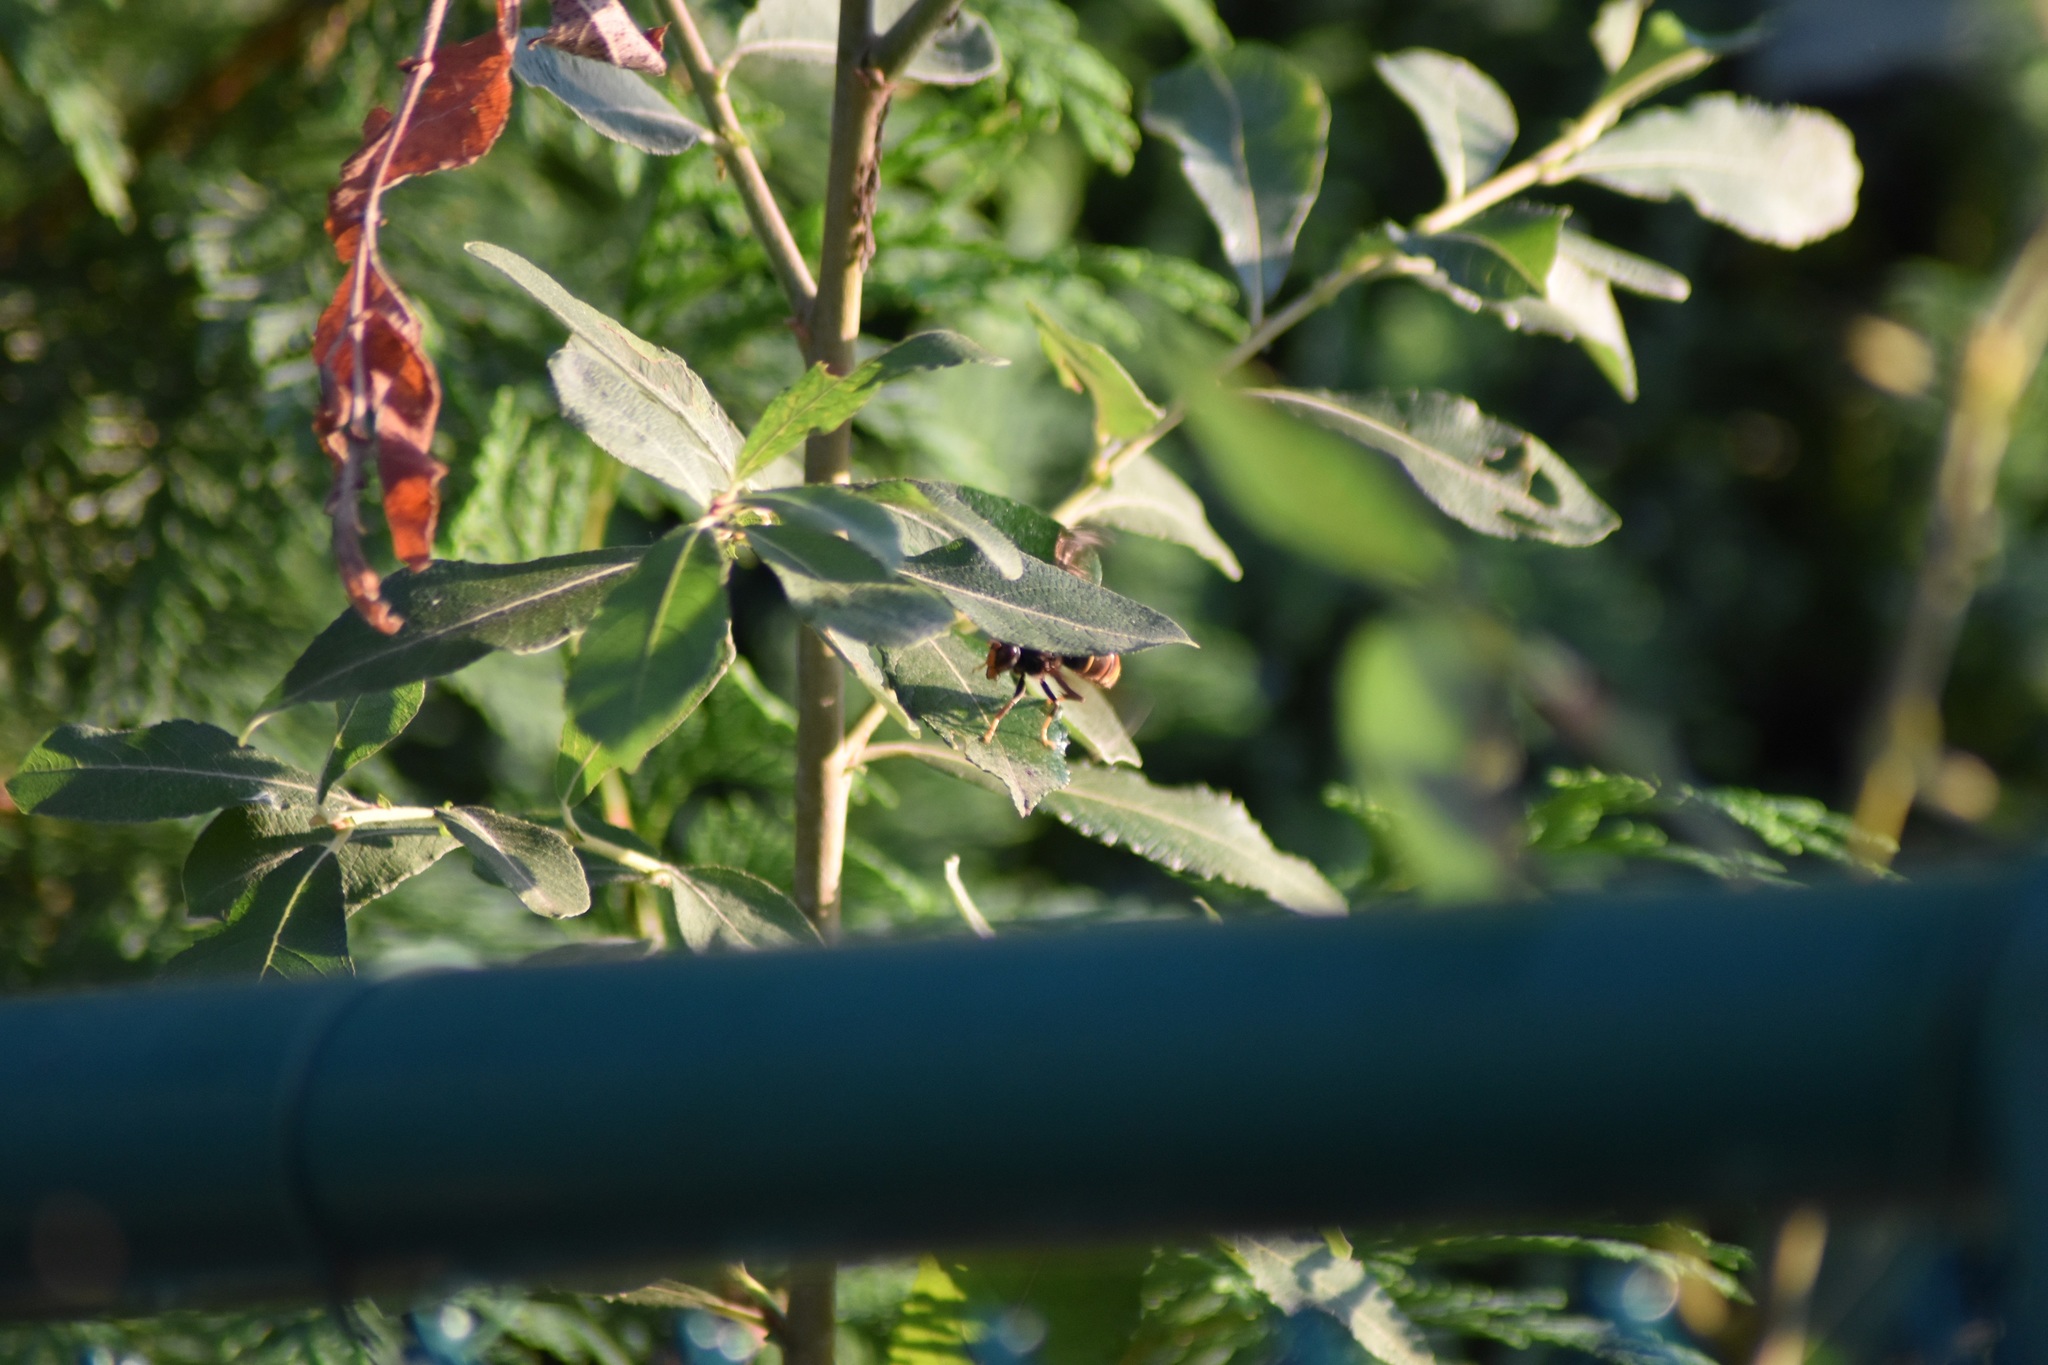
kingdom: Animalia
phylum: Arthropoda
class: Insecta
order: Hymenoptera
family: Vespidae
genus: Vespa
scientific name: Vespa velutina
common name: Asian hornet
